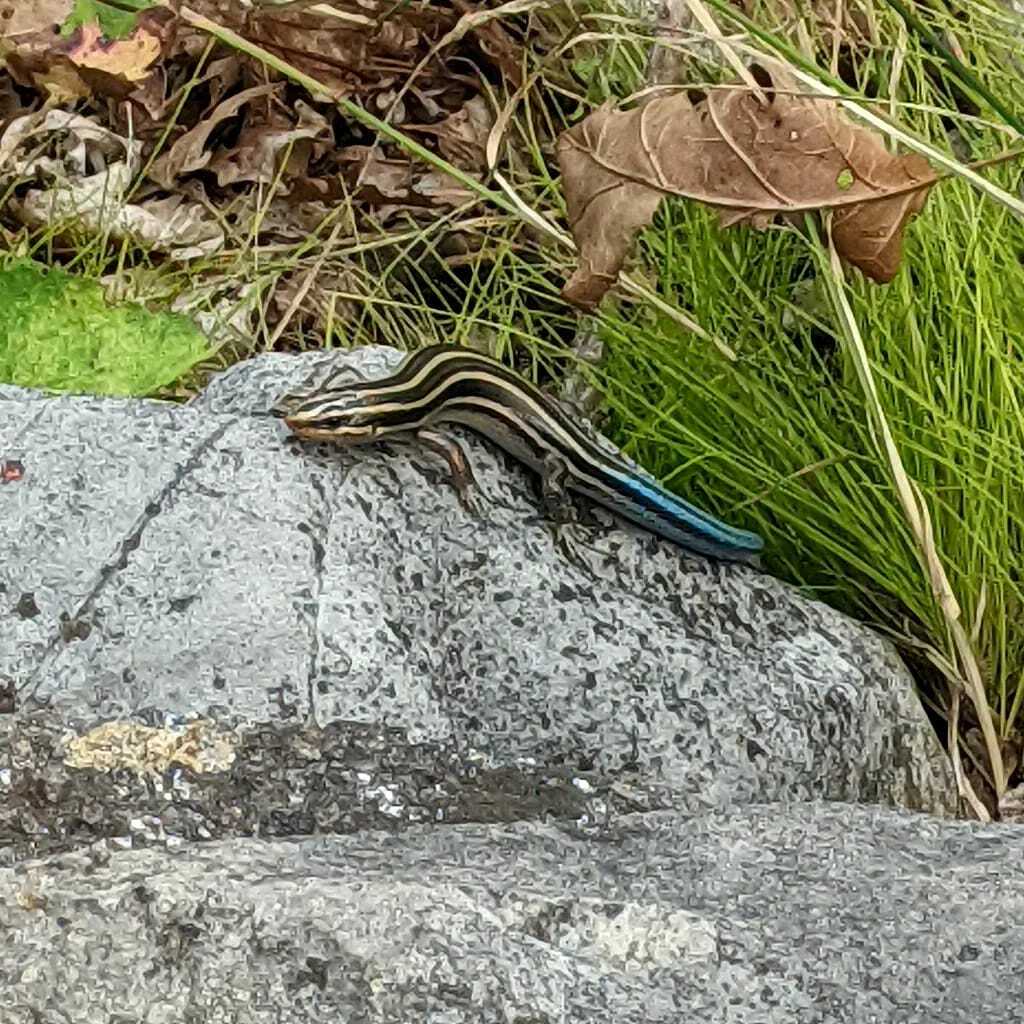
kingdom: Animalia
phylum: Chordata
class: Squamata
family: Scincidae
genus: Plestiodon
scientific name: Plestiodon fasciatus
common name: Five-lined skink
